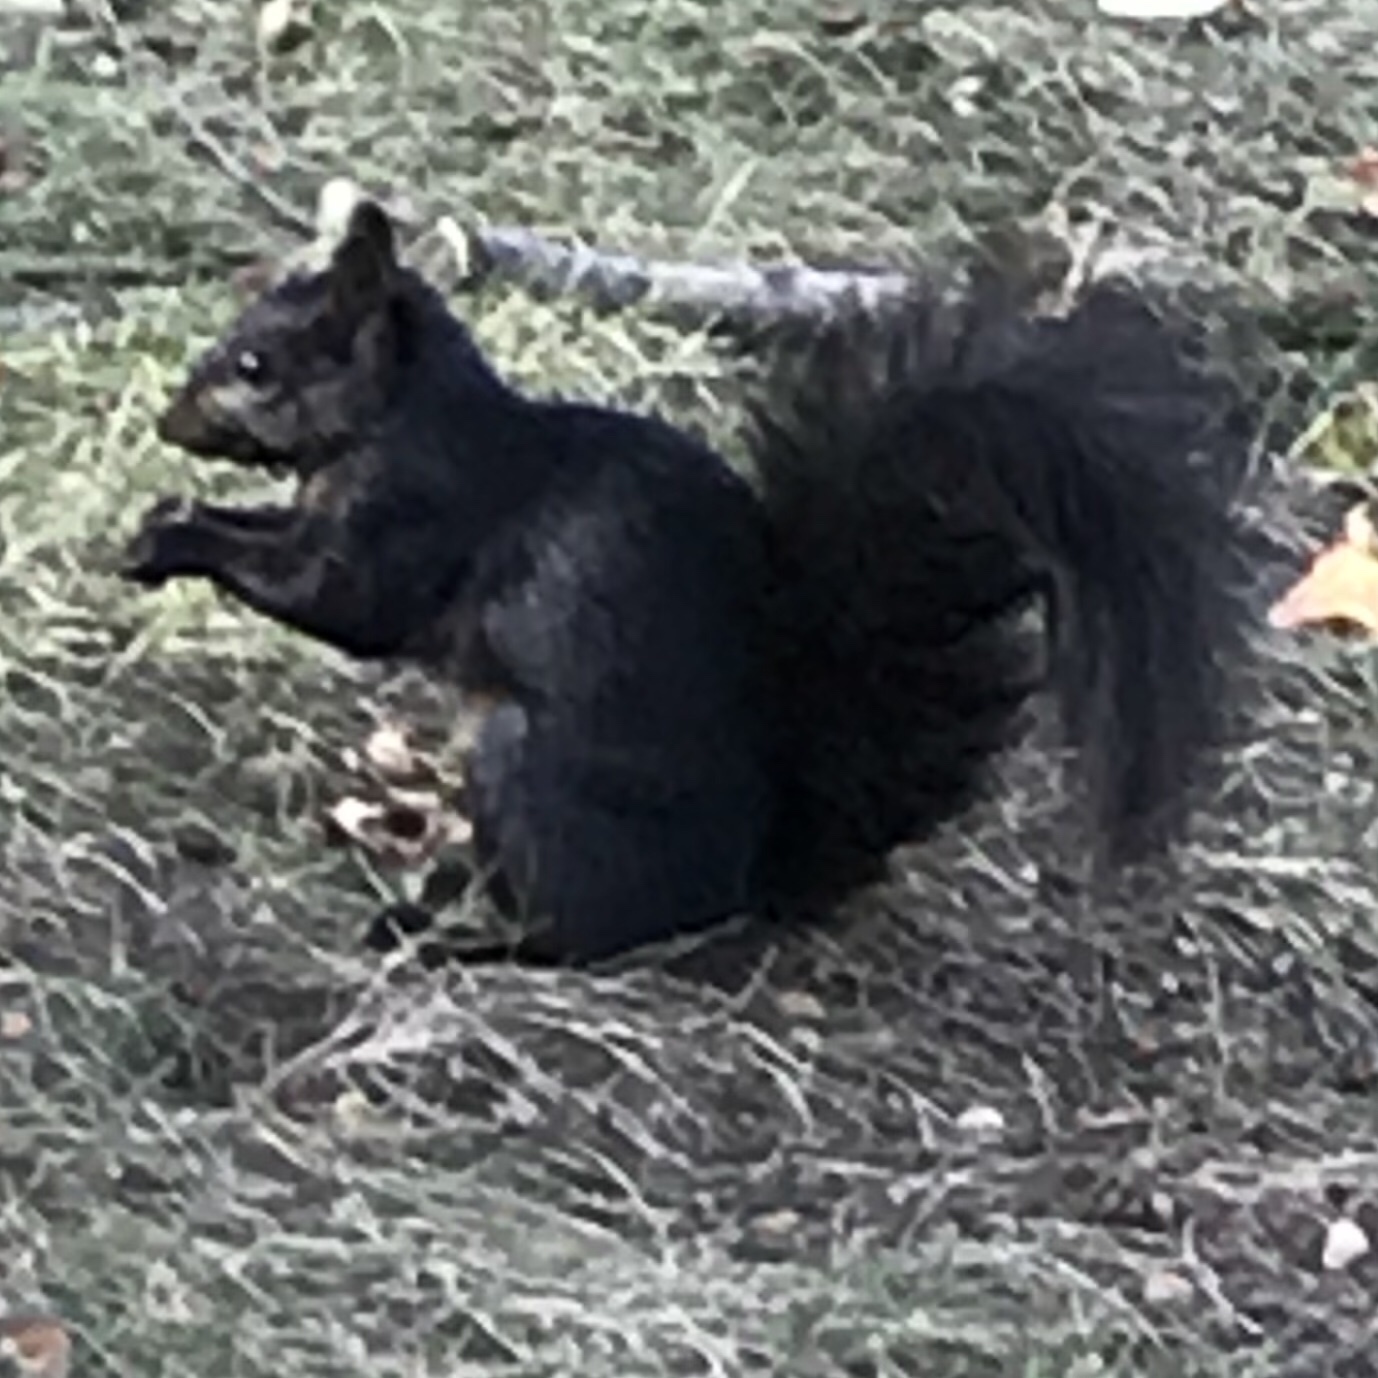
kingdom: Animalia
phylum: Chordata
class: Mammalia
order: Rodentia
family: Sciuridae
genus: Sciurus
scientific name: Sciurus carolinensis
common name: Eastern gray squirrel
